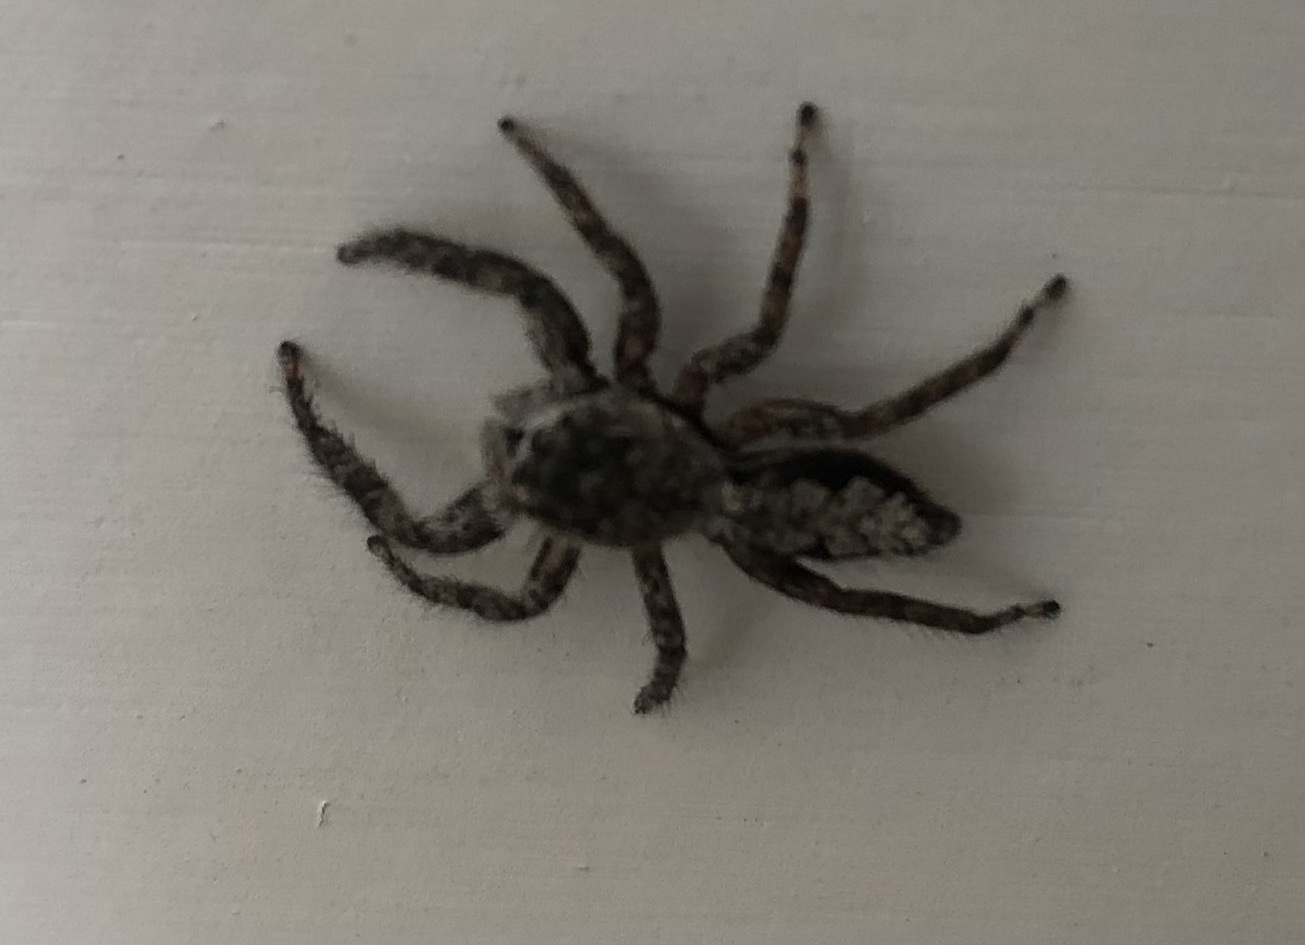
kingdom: Animalia
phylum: Arthropoda
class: Arachnida
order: Araneae
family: Salticidae
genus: Platycryptus
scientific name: Platycryptus undatus
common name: Tan jumping spider
